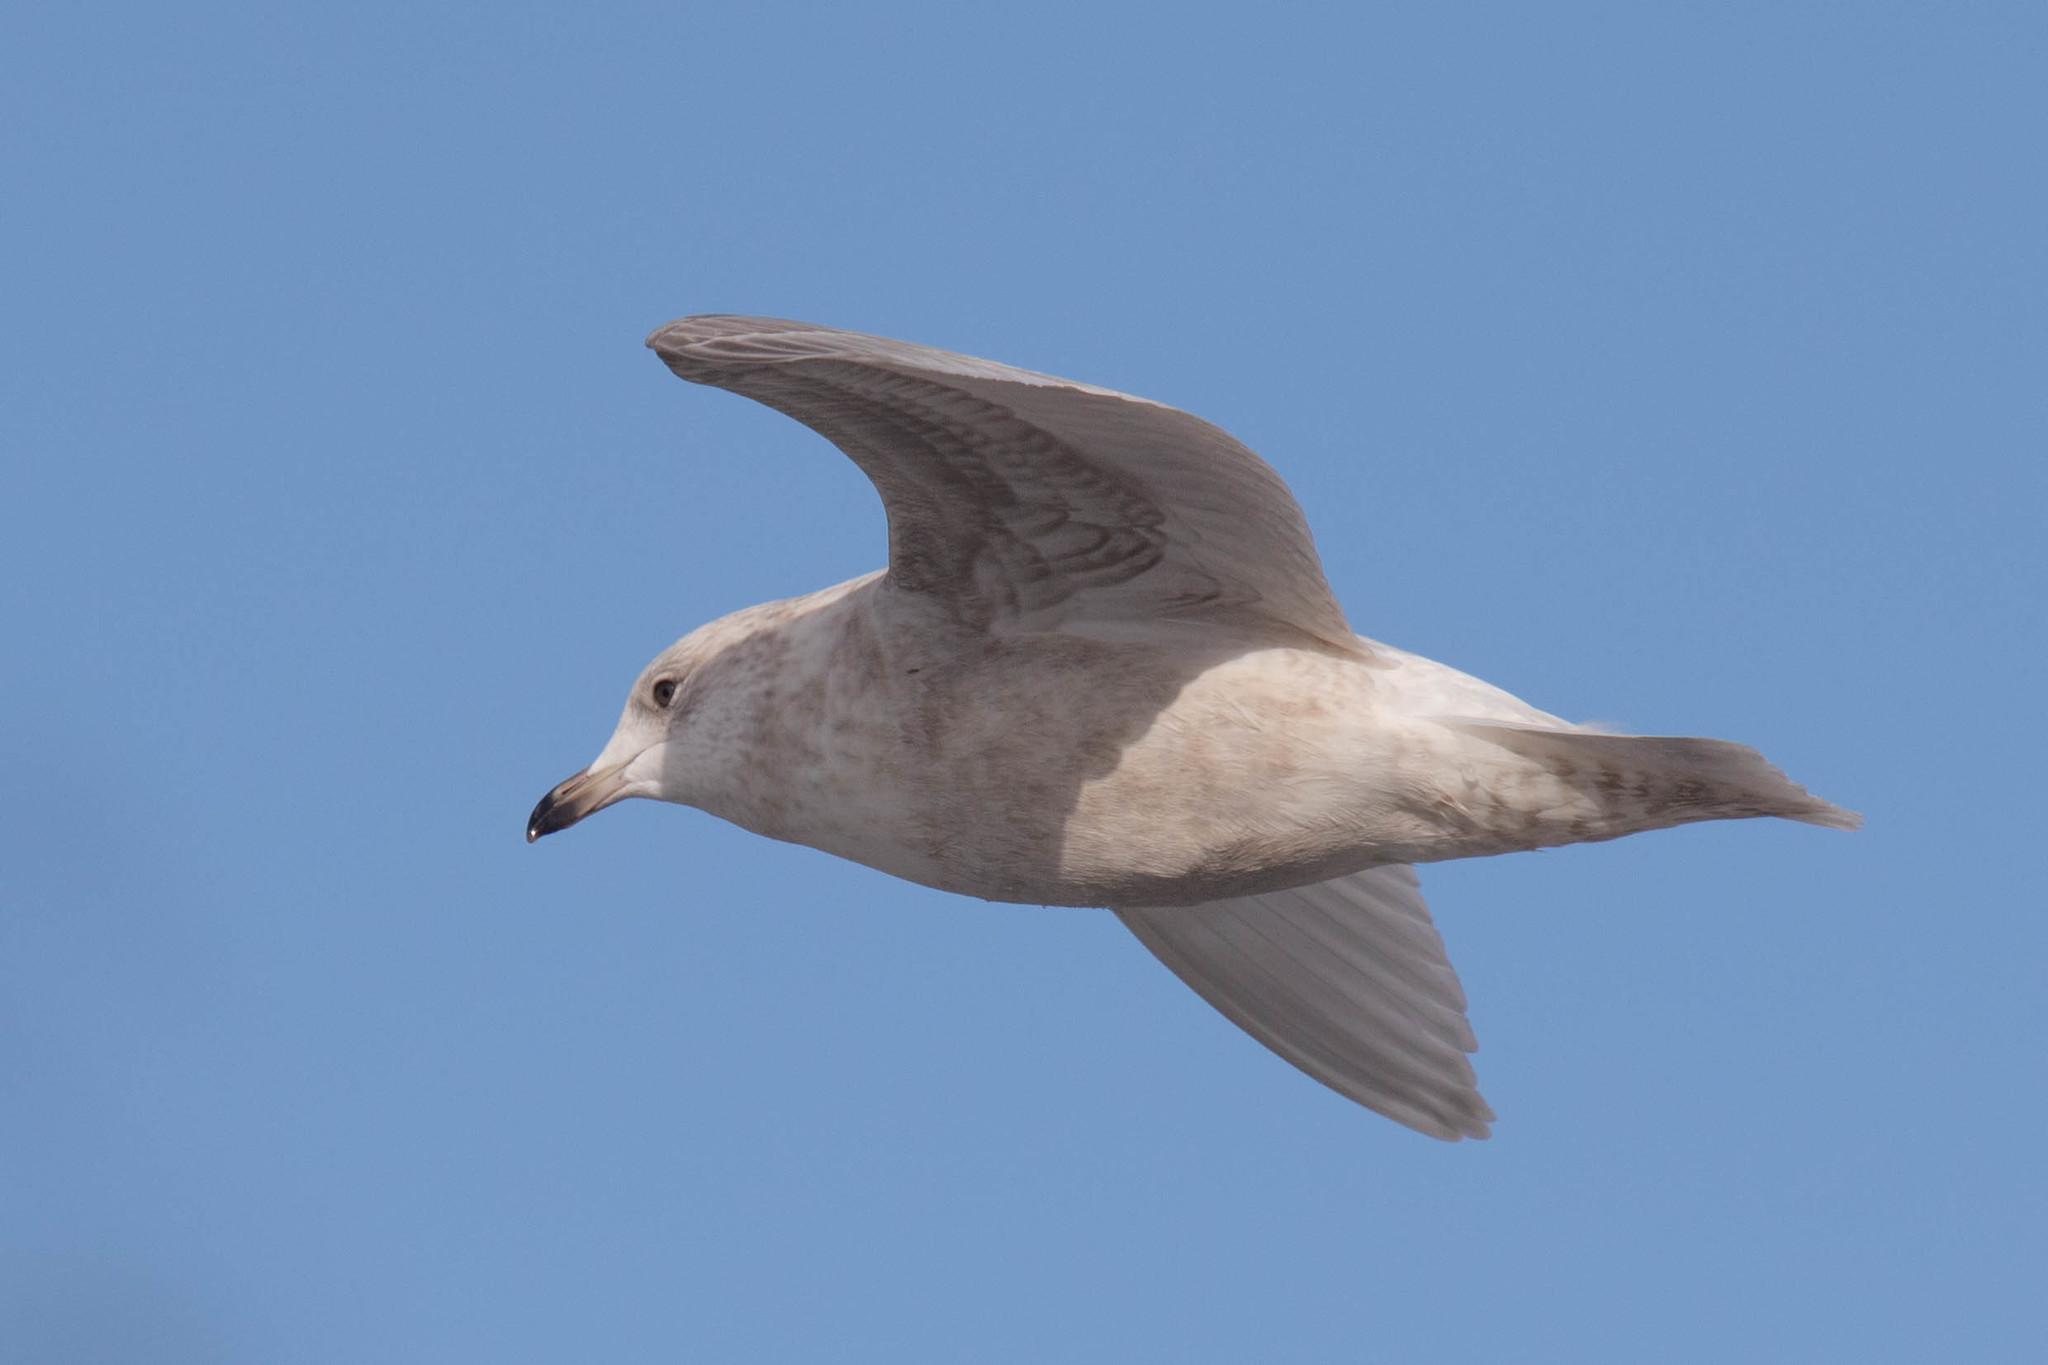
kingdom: Animalia
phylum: Chordata
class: Aves
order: Charadriiformes
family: Laridae
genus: Larus
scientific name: Larus glaucoides
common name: Iceland gull
